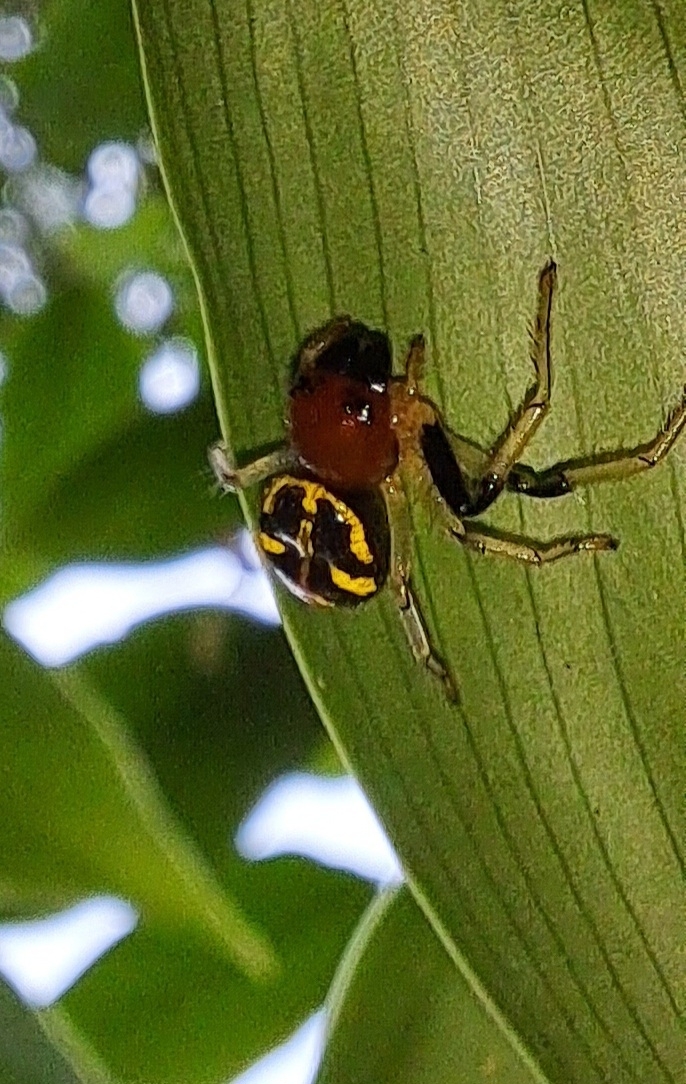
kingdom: Animalia
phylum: Arthropoda
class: Arachnida
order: Araneae
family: Thomisidae
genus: Camaricus
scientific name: Camaricus maugei
